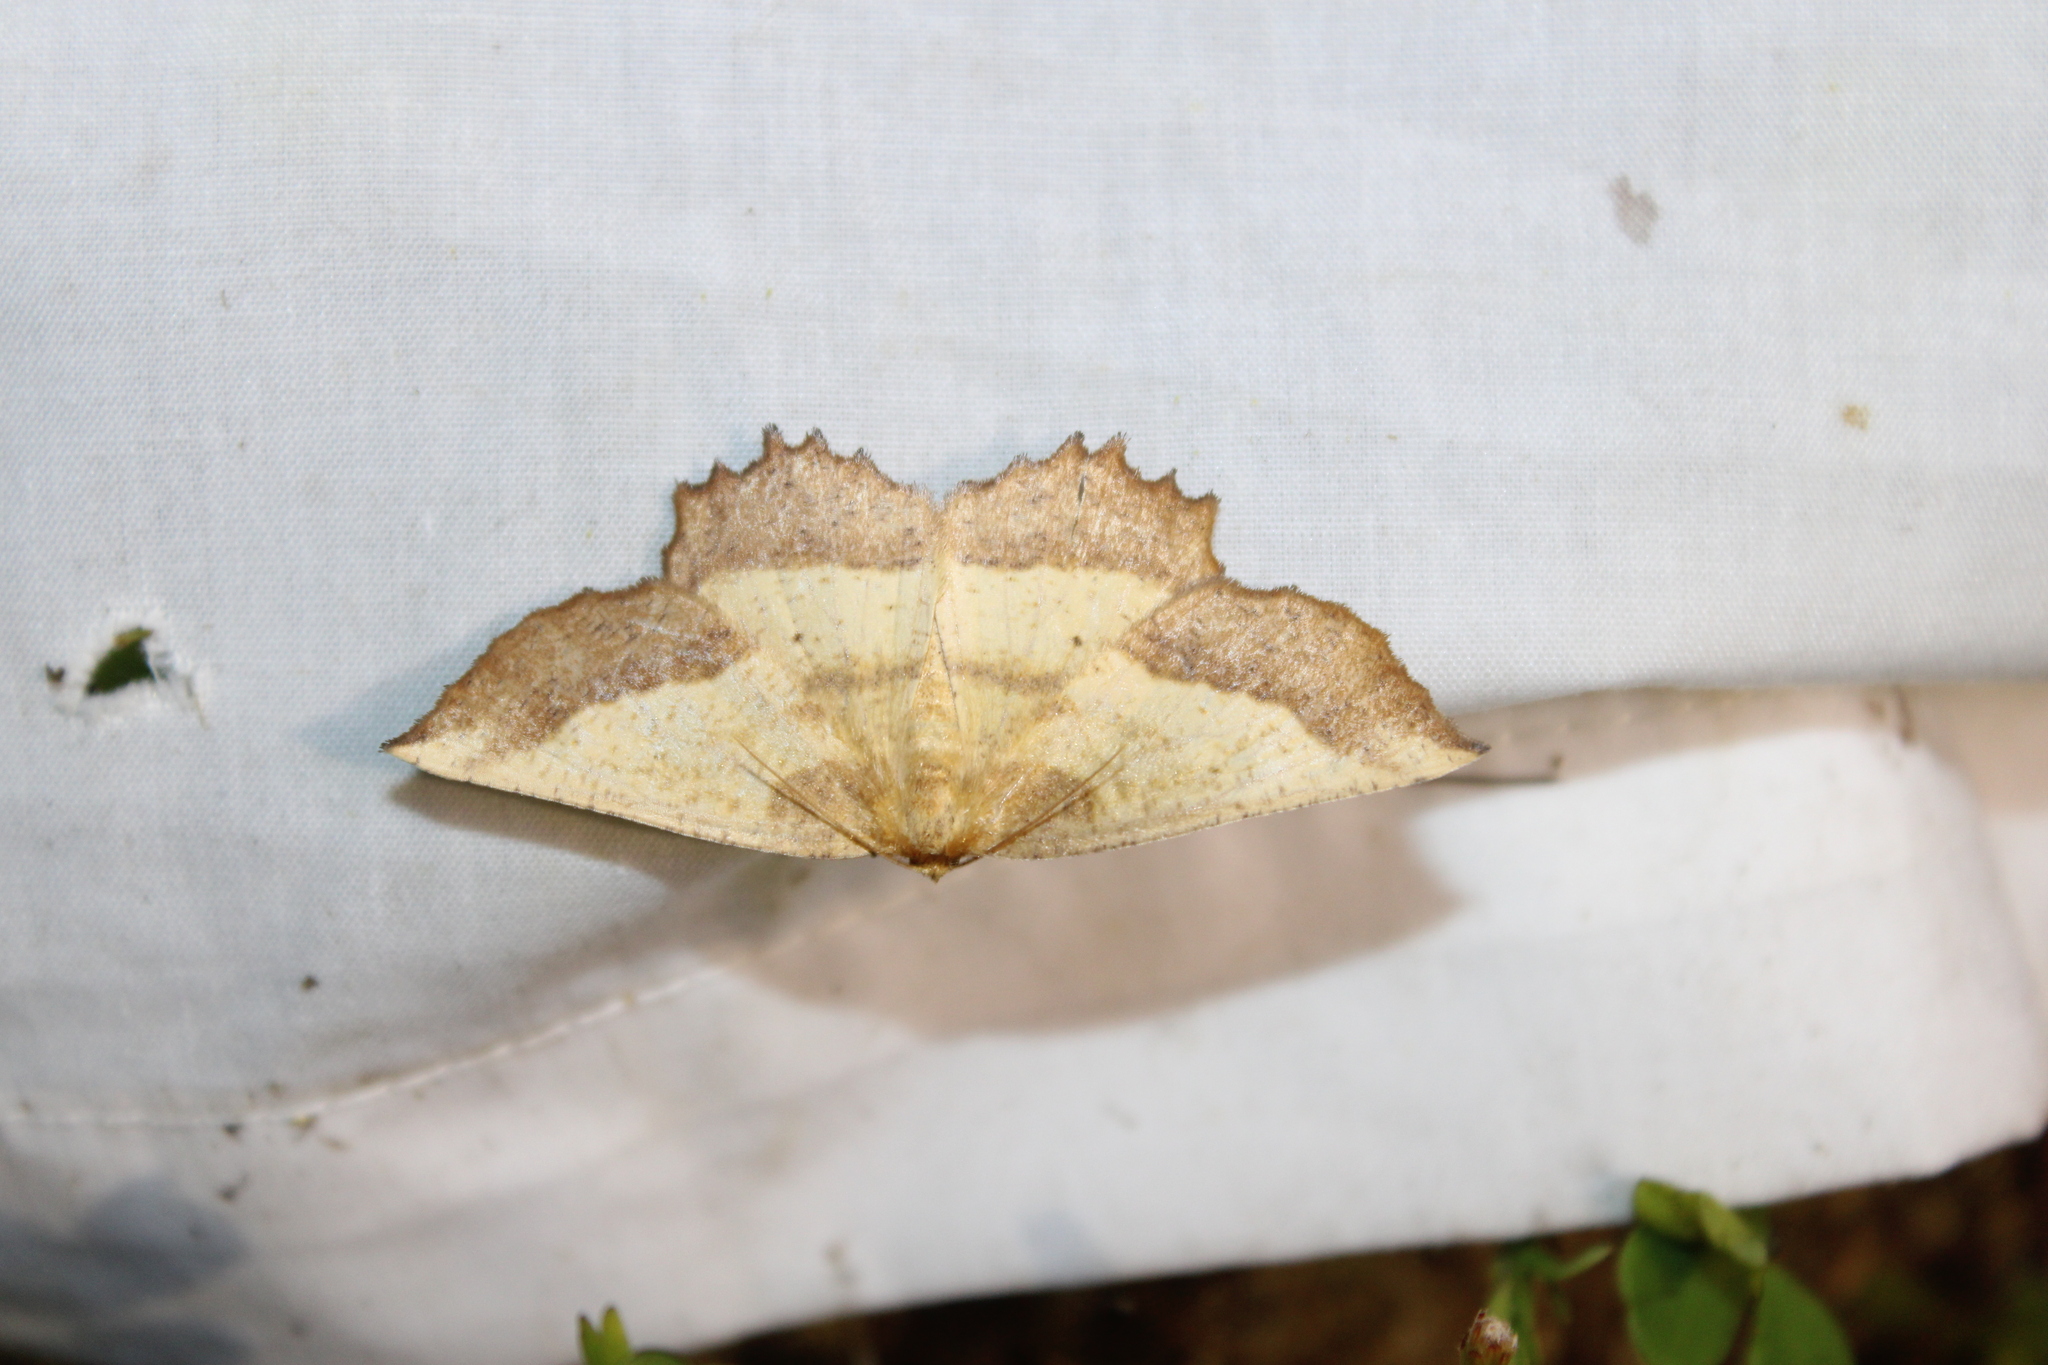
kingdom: Animalia
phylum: Arthropoda
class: Insecta
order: Lepidoptera
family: Geometridae
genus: Euchlaena
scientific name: Euchlaena serrata
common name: Saw wing
